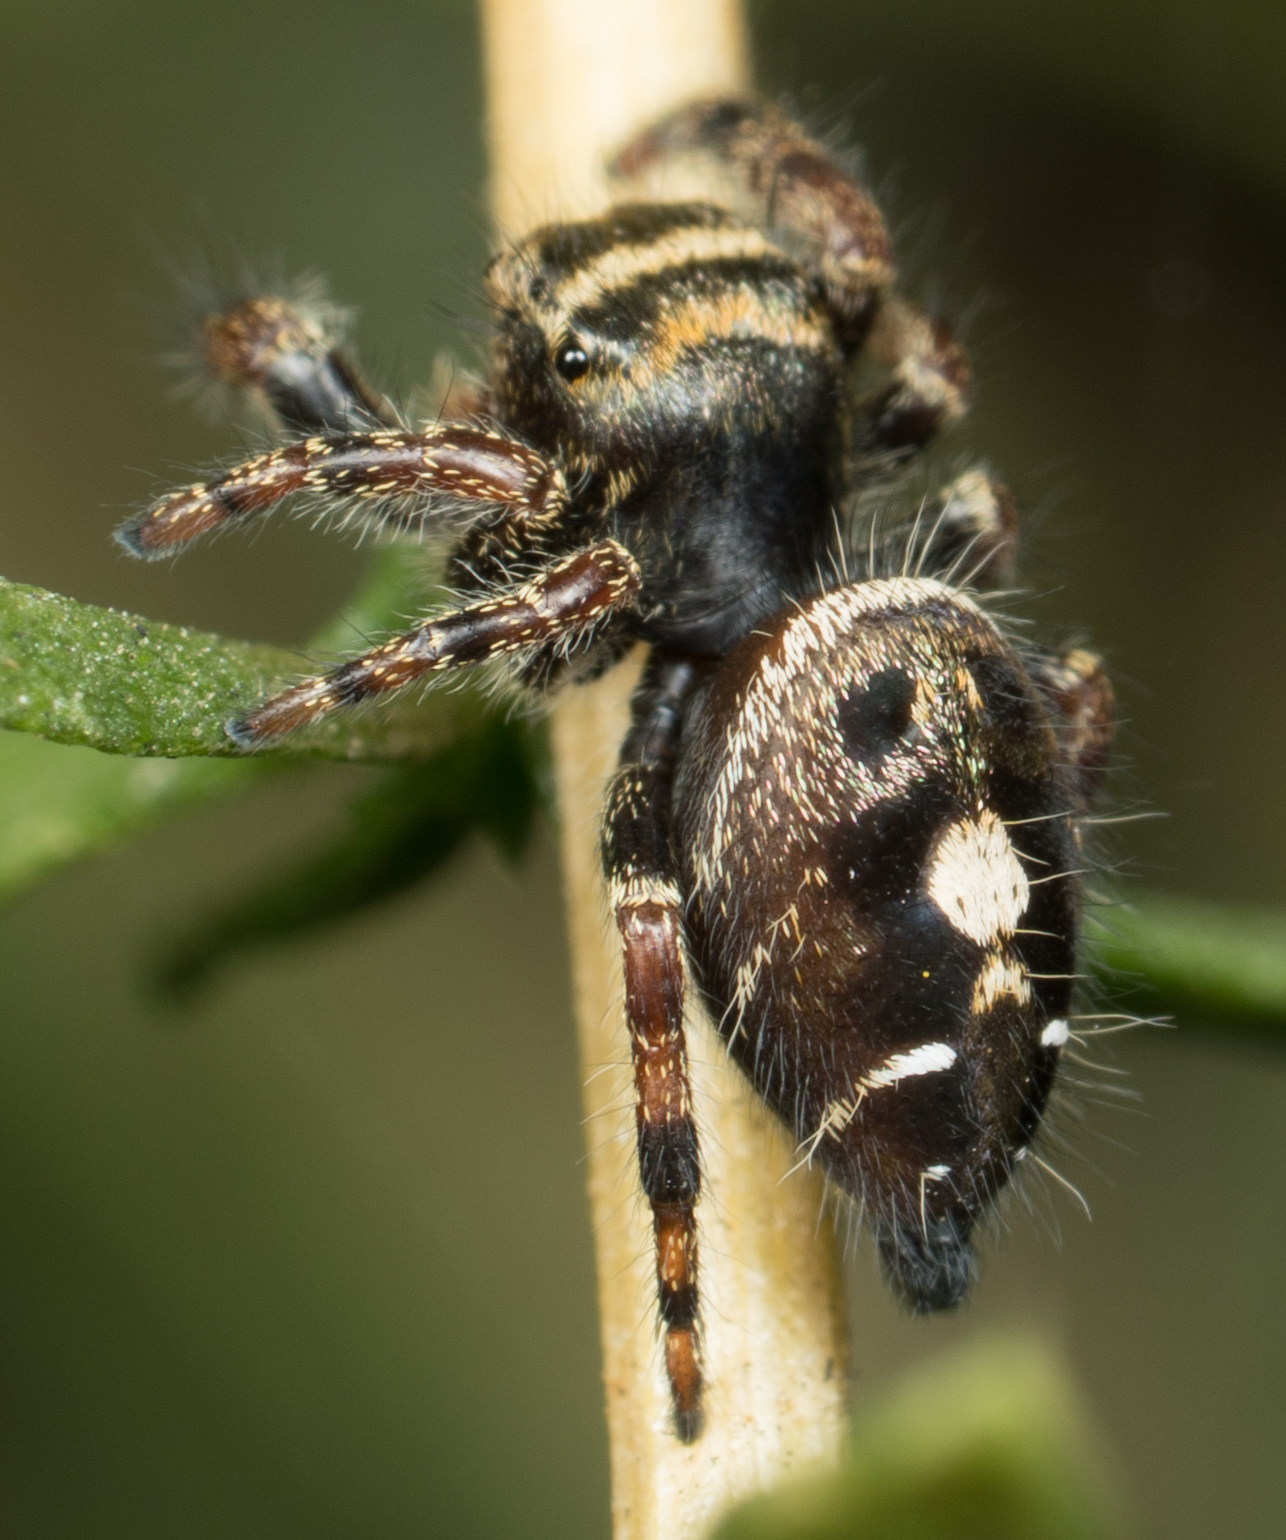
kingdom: Animalia
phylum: Arthropoda
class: Arachnida
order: Araneae
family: Salticidae
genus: Phidippus
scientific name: Phidippus audax
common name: Bold jumper
